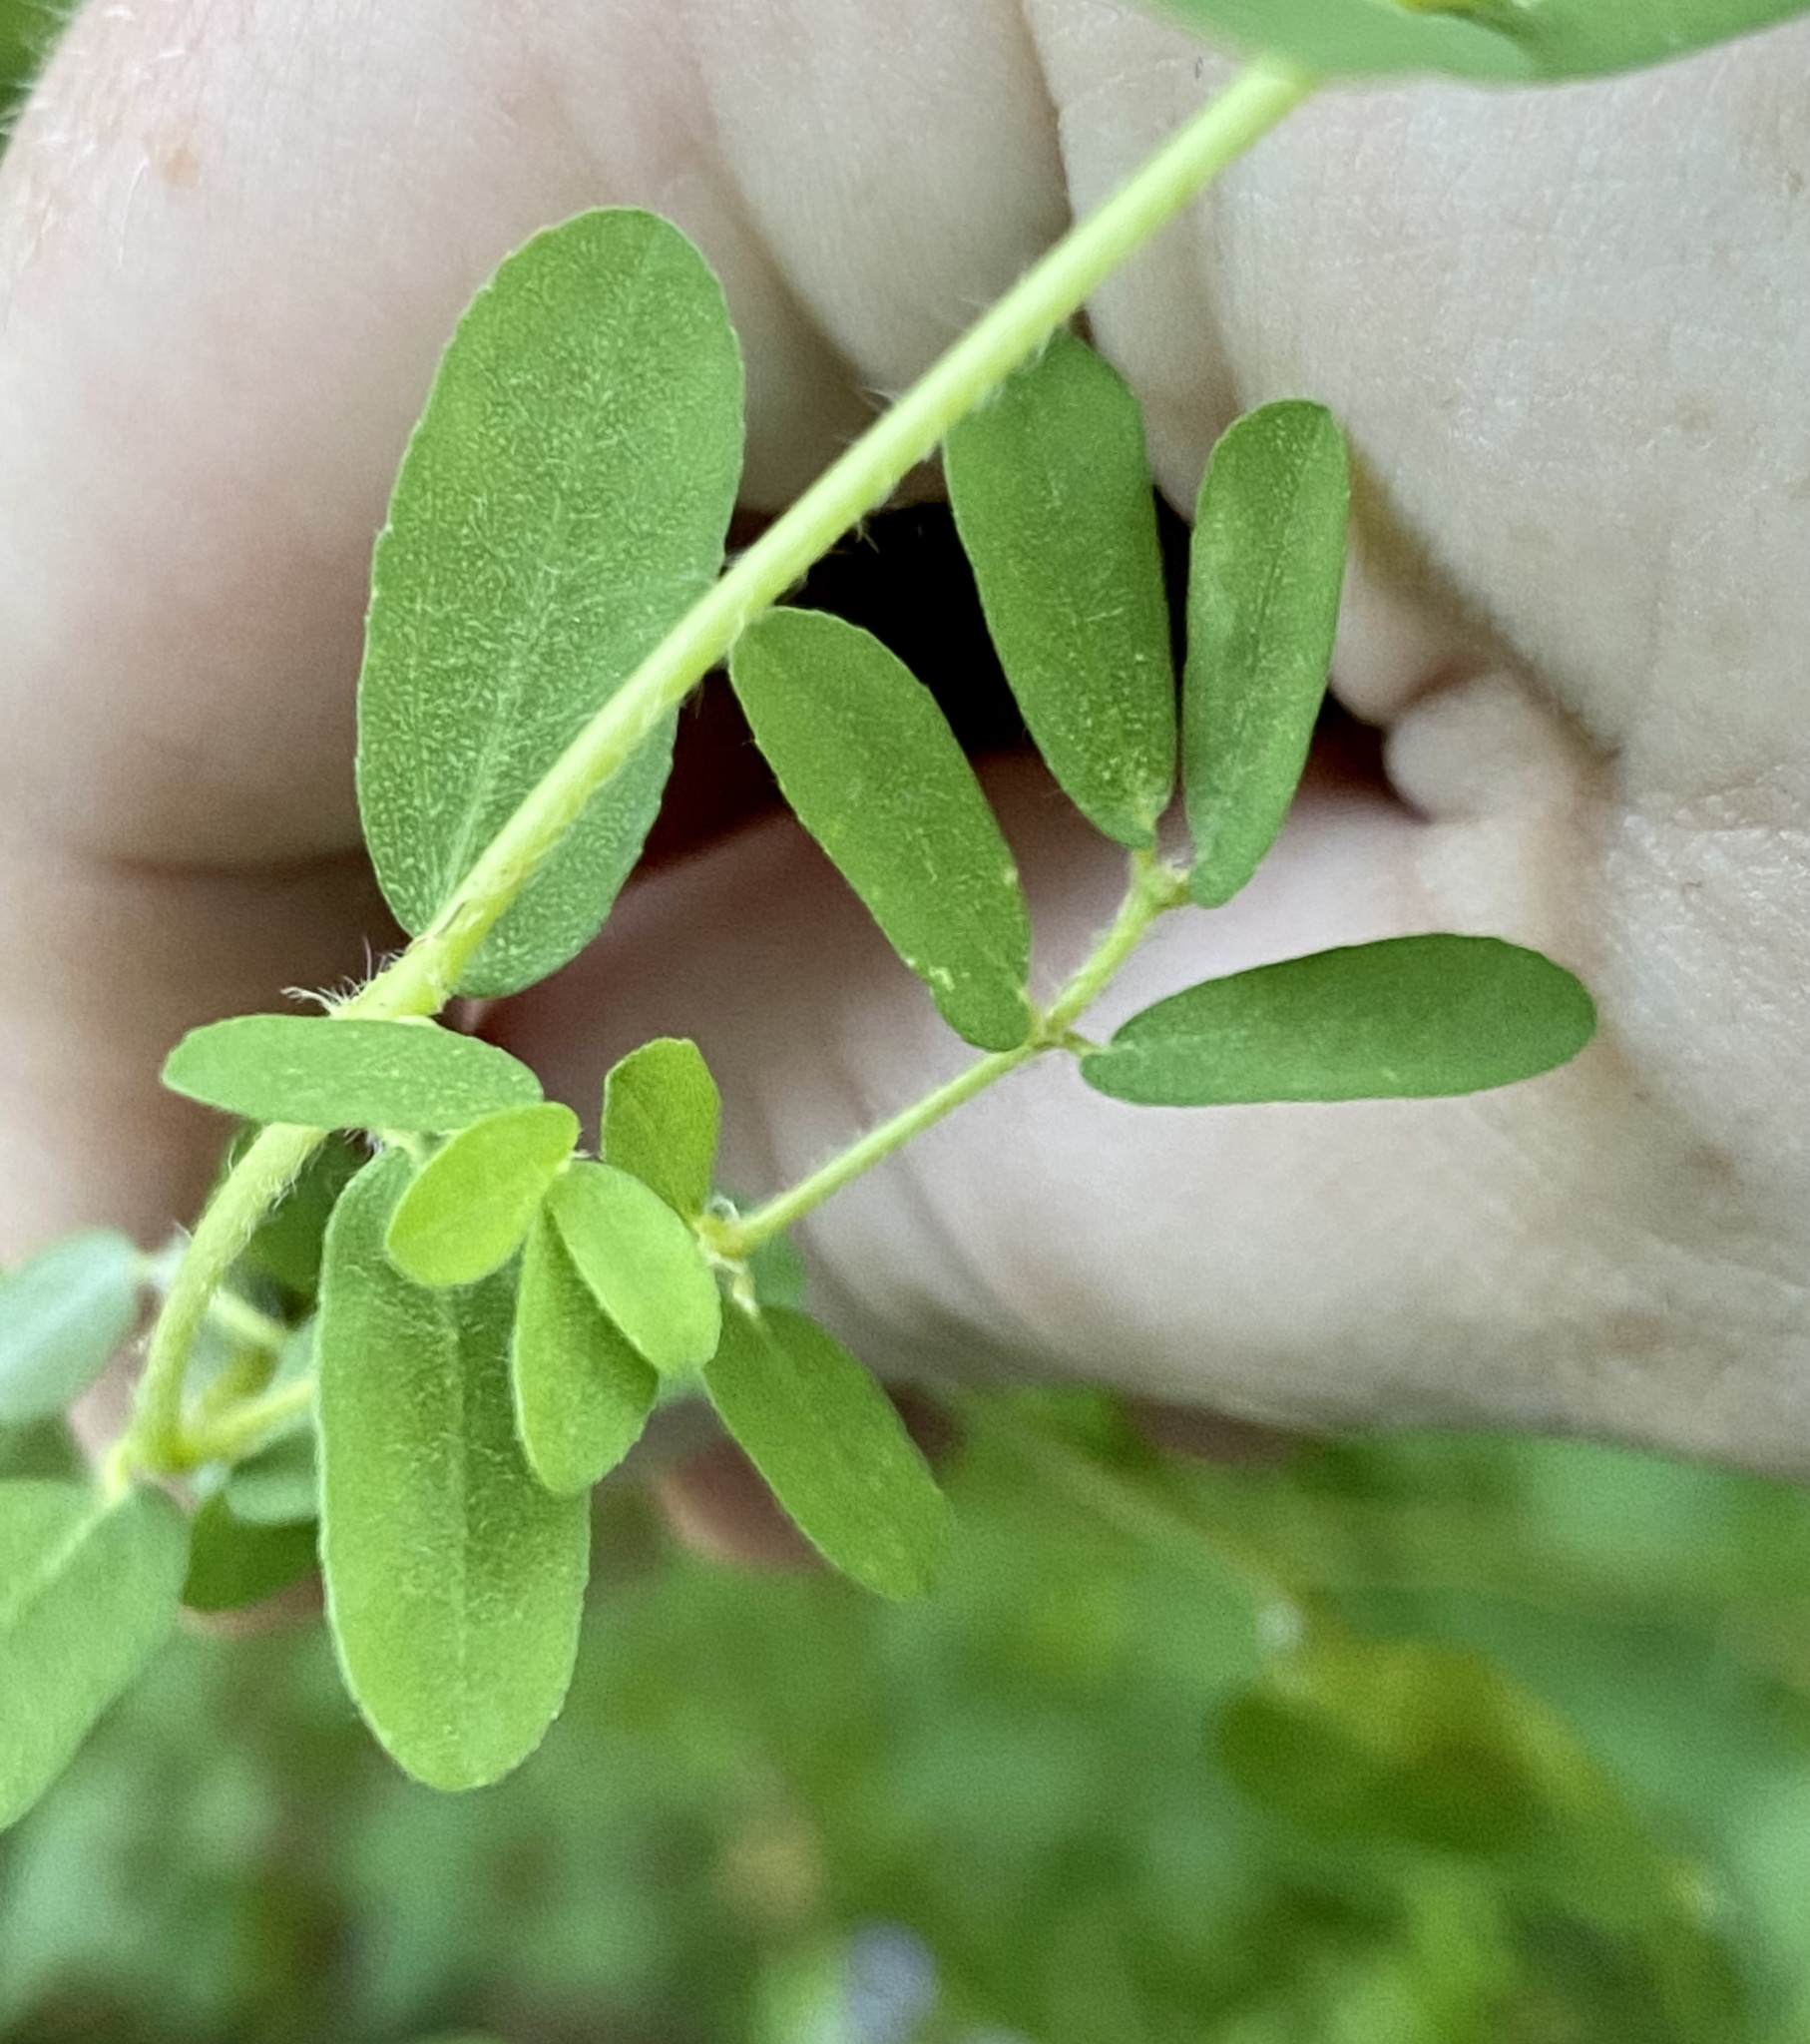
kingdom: Plantae
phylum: Tracheophyta
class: Magnoliopsida
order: Malpighiales
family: Euphorbiaceae
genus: Euphorbia
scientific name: Euphorbia maculata
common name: Spotted spurge
